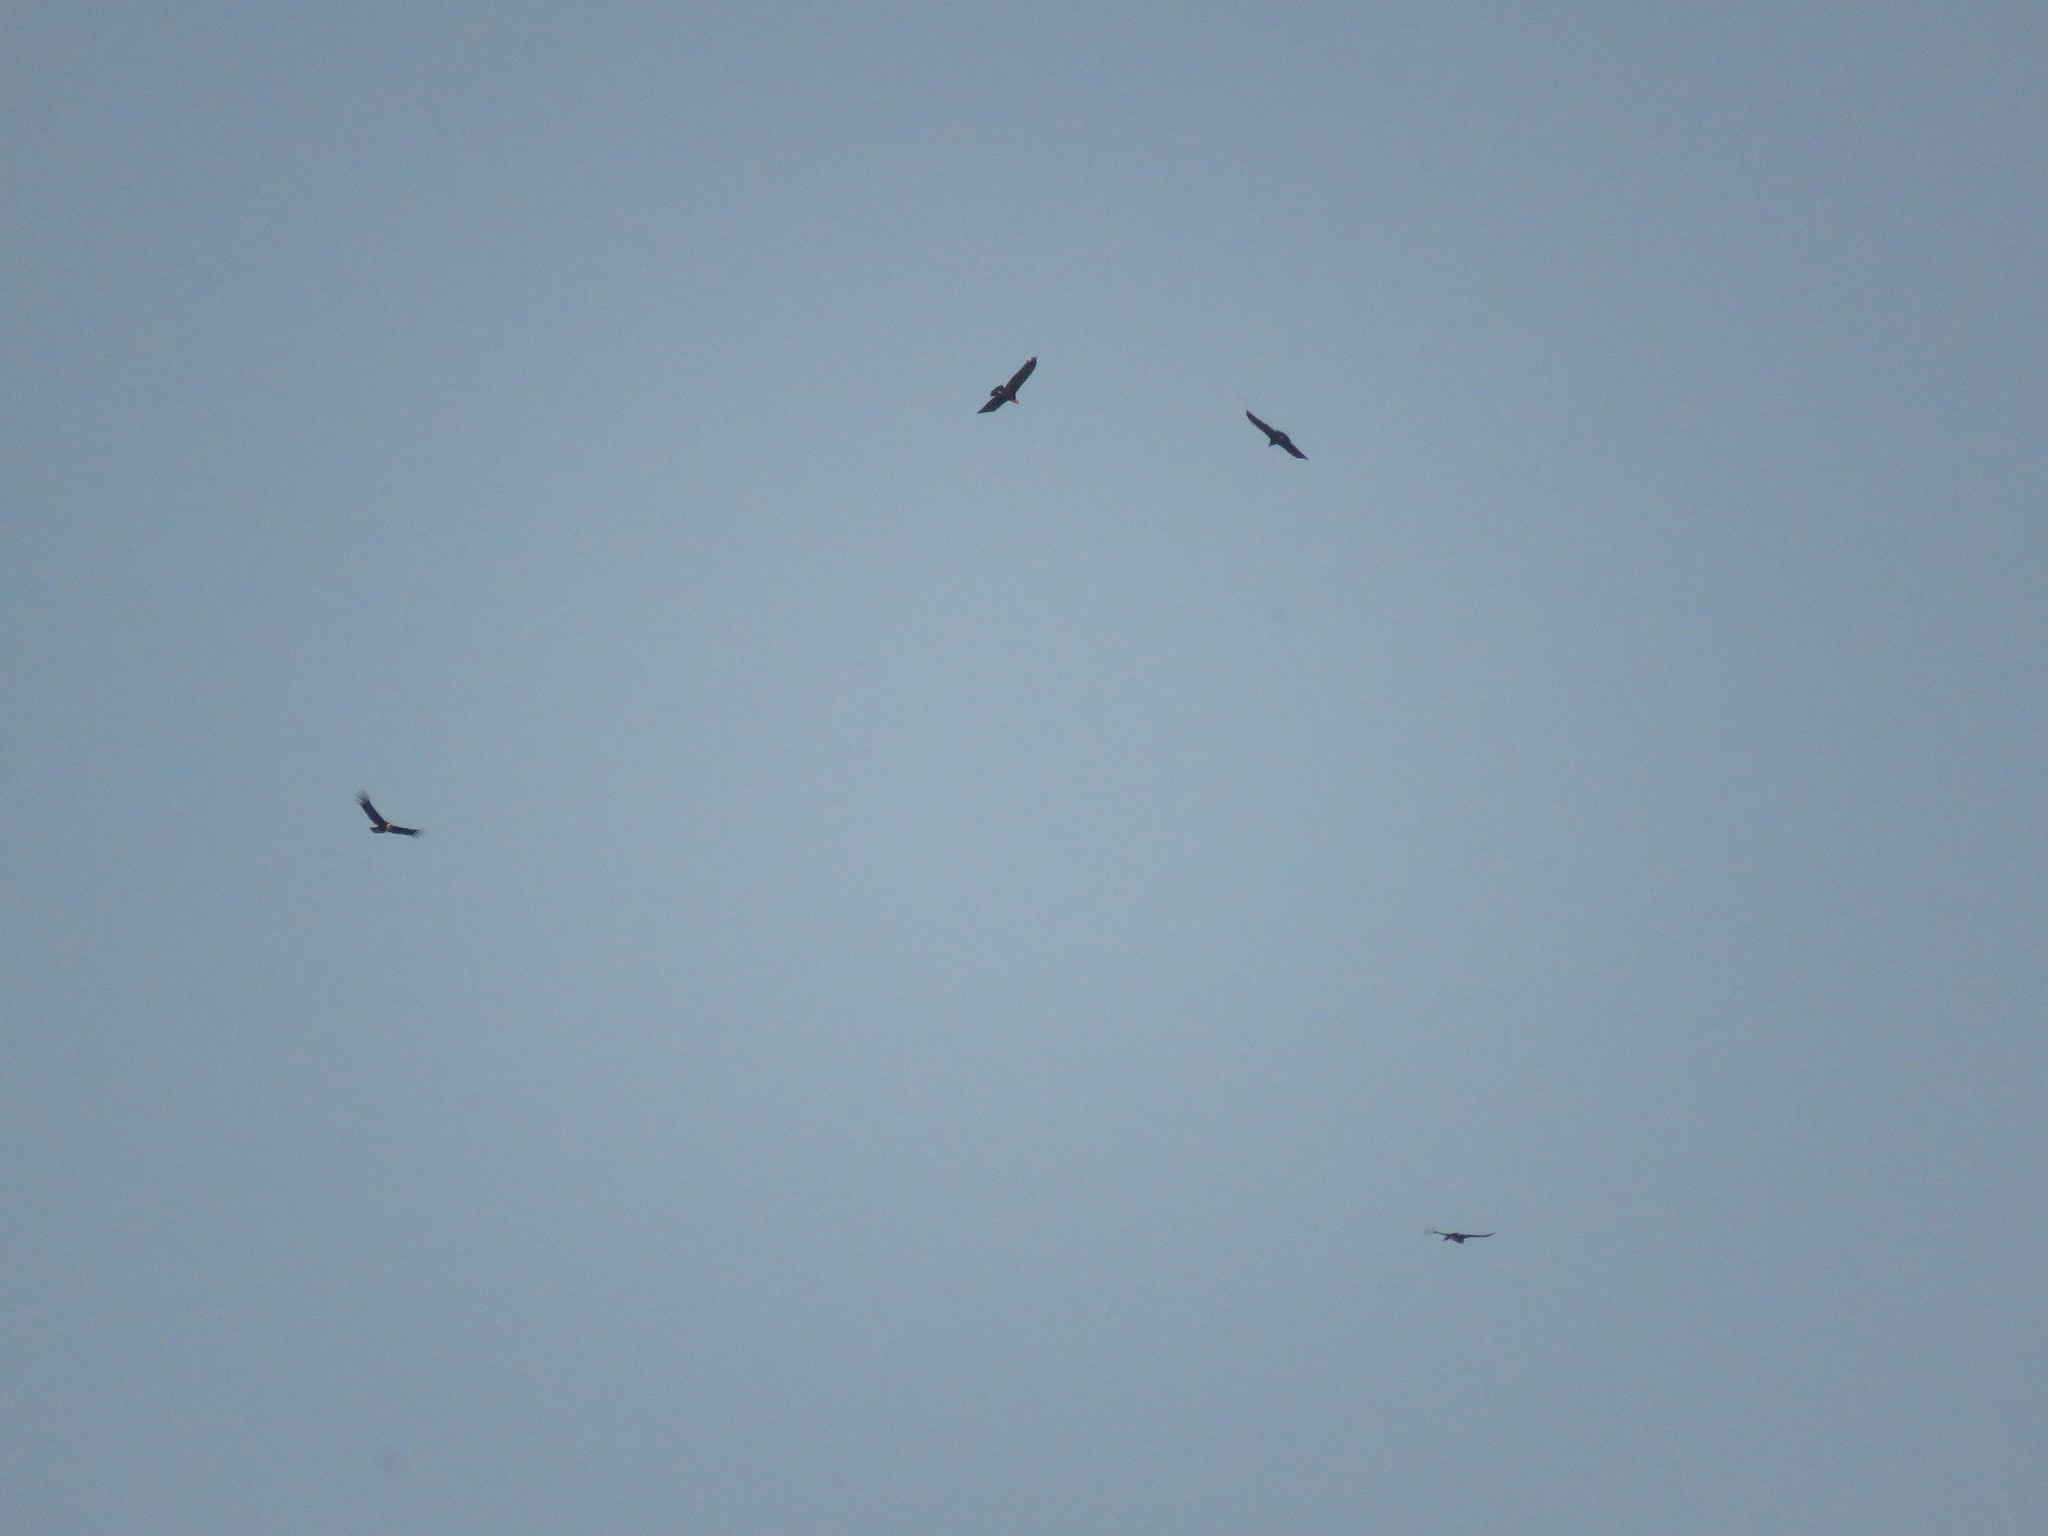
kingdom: Animalia
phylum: Chordata
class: Aves
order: Accipitriformes
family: Cathartidae
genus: Vultur
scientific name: Vultur gryphus
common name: Andean condor
